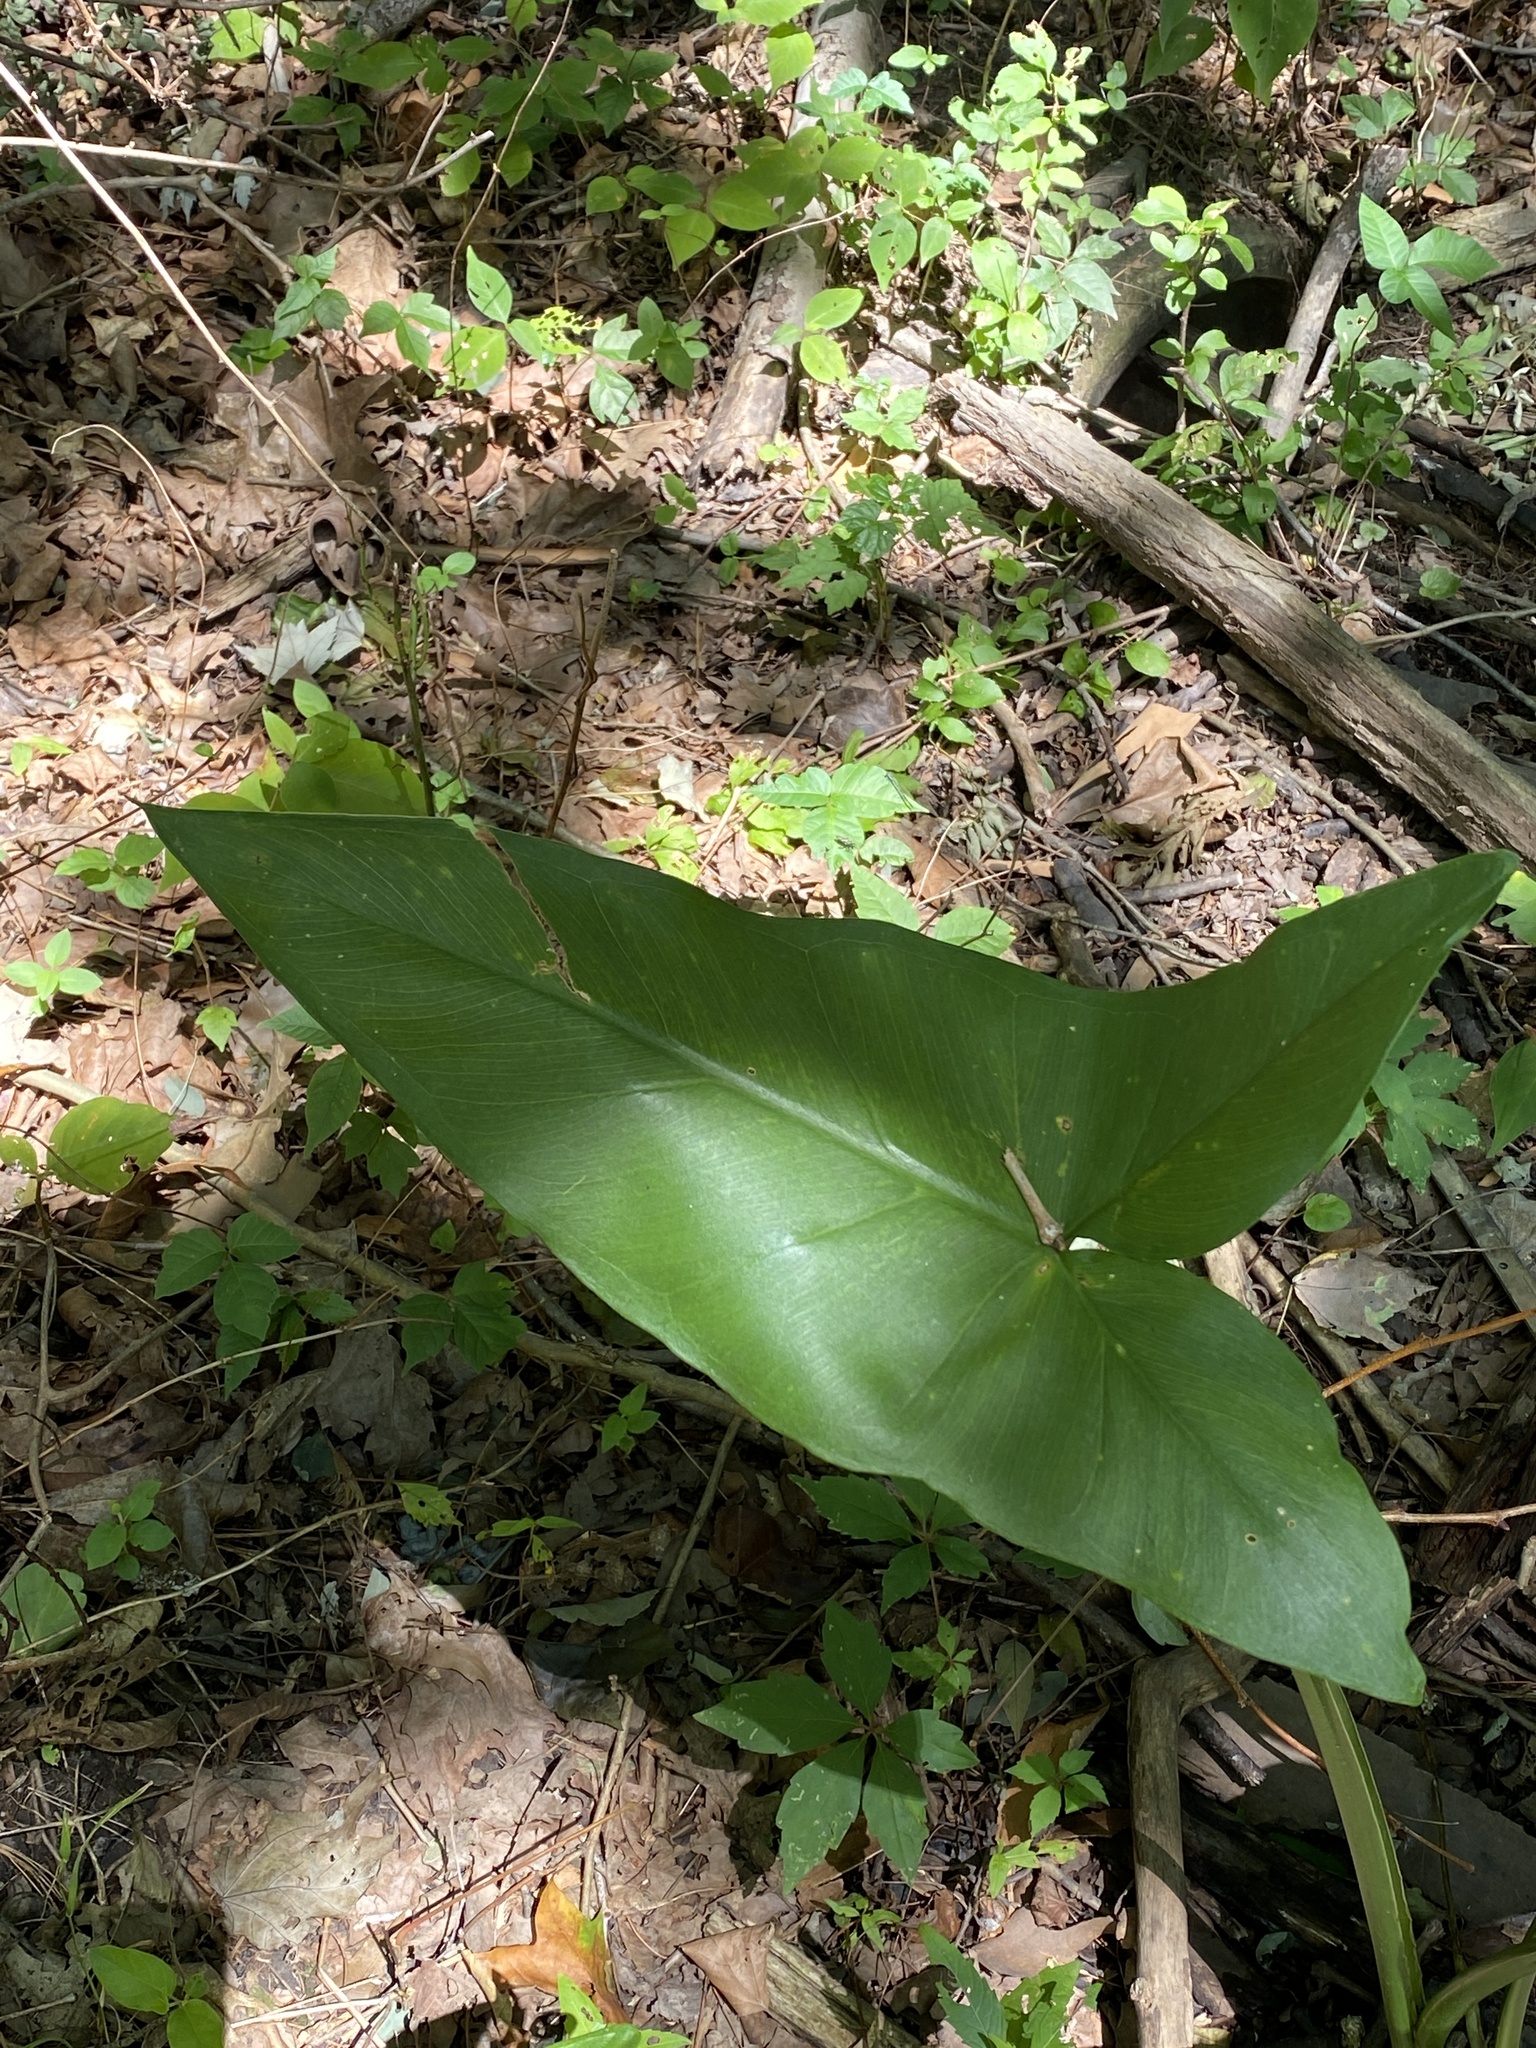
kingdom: Plantae
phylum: Tracheophyta
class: Liliopsida
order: Alismatales
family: Araceae
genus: Peltandra
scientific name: Peltandra virginica
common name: Arrow arum
